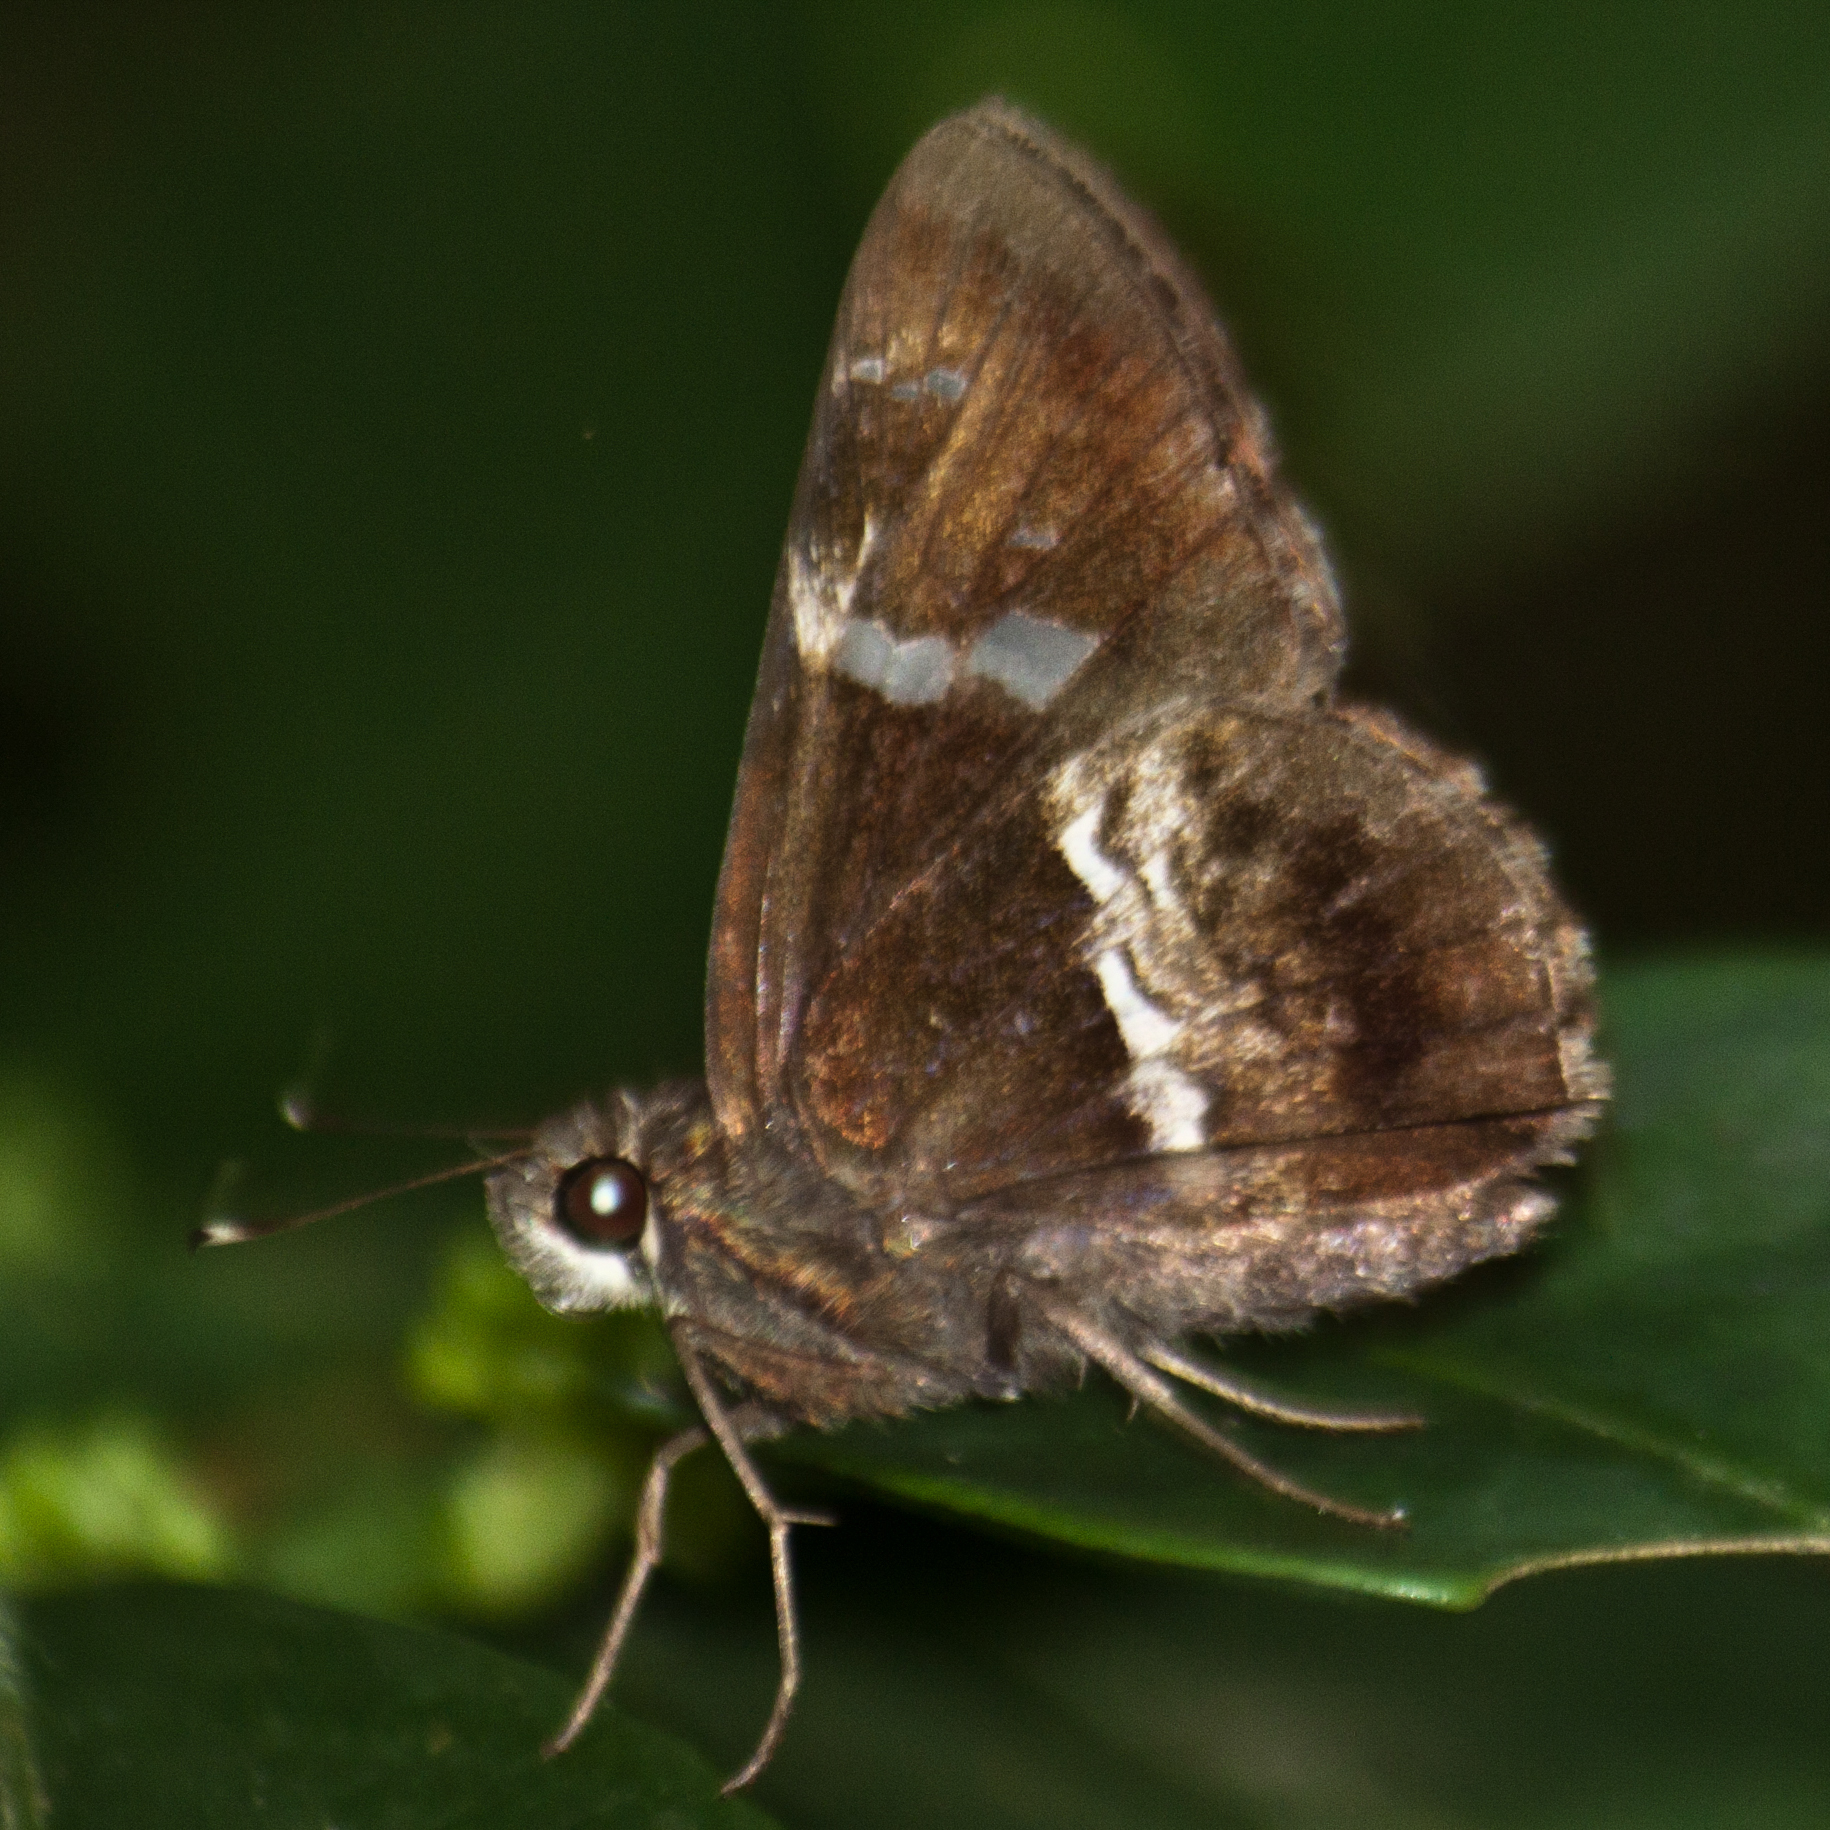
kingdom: Animalia
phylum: Arthropoda
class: Insecta
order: Lepidoptera
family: Hesperiidae
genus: Hyarotis
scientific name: Hyarotis adrastus
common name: Tree flitter
